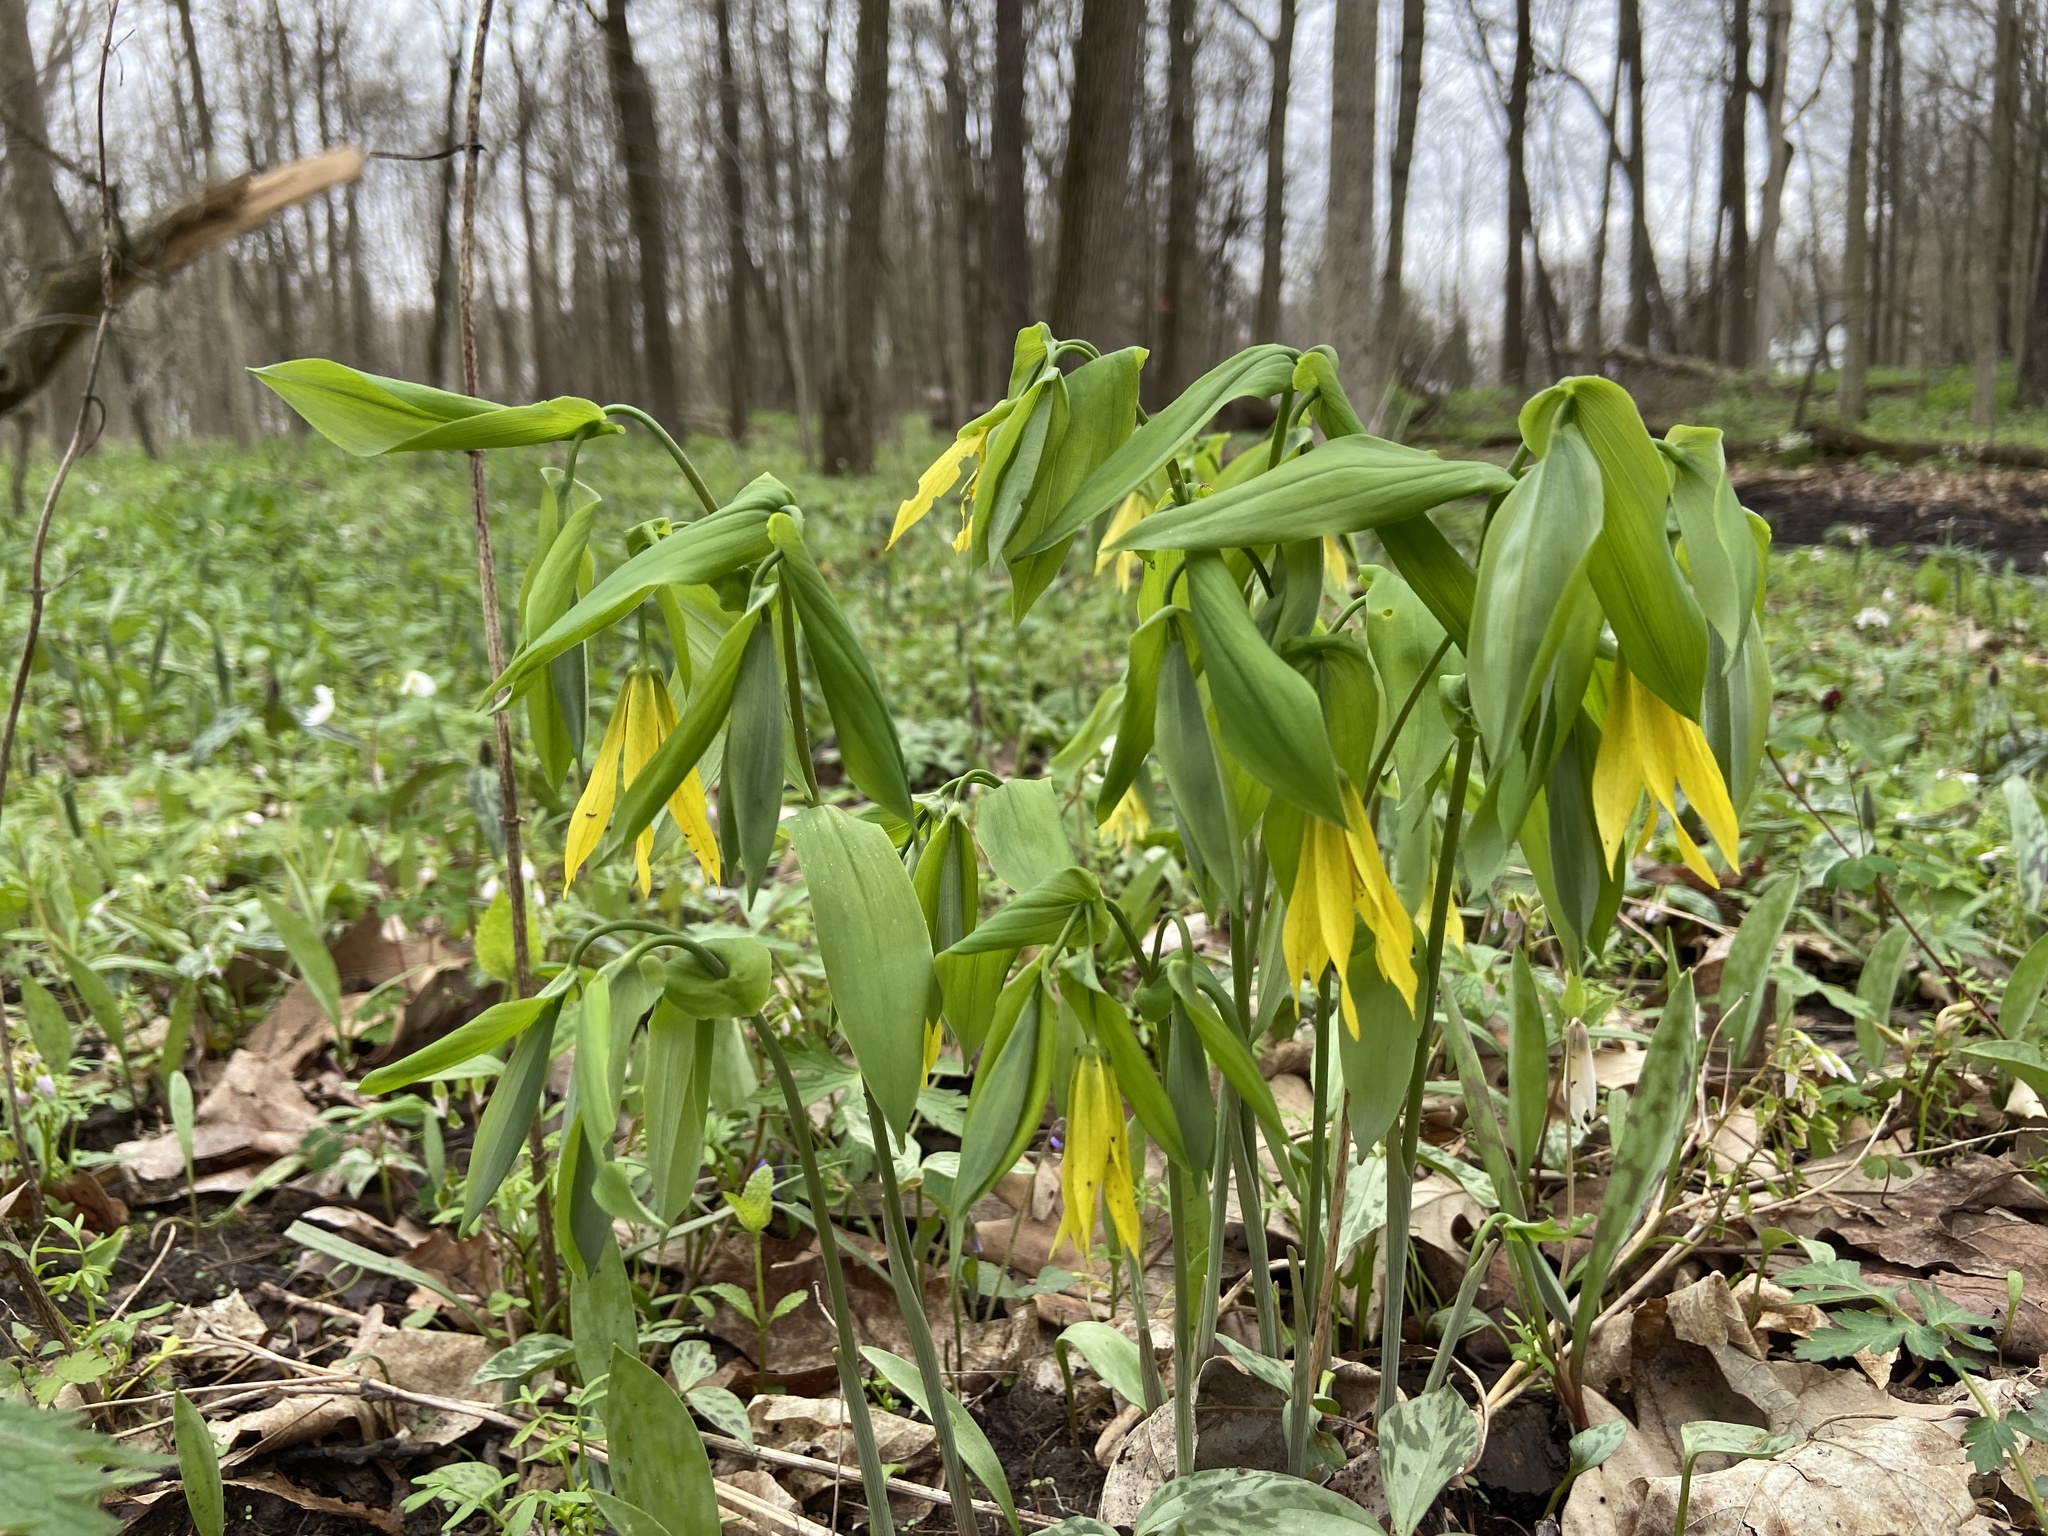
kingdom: Plantae
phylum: Tracheophyta
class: Liliopsida
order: Liliales
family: Colchicaceae
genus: Uvularia
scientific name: Uvularia grandiflora
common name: Bellwort
